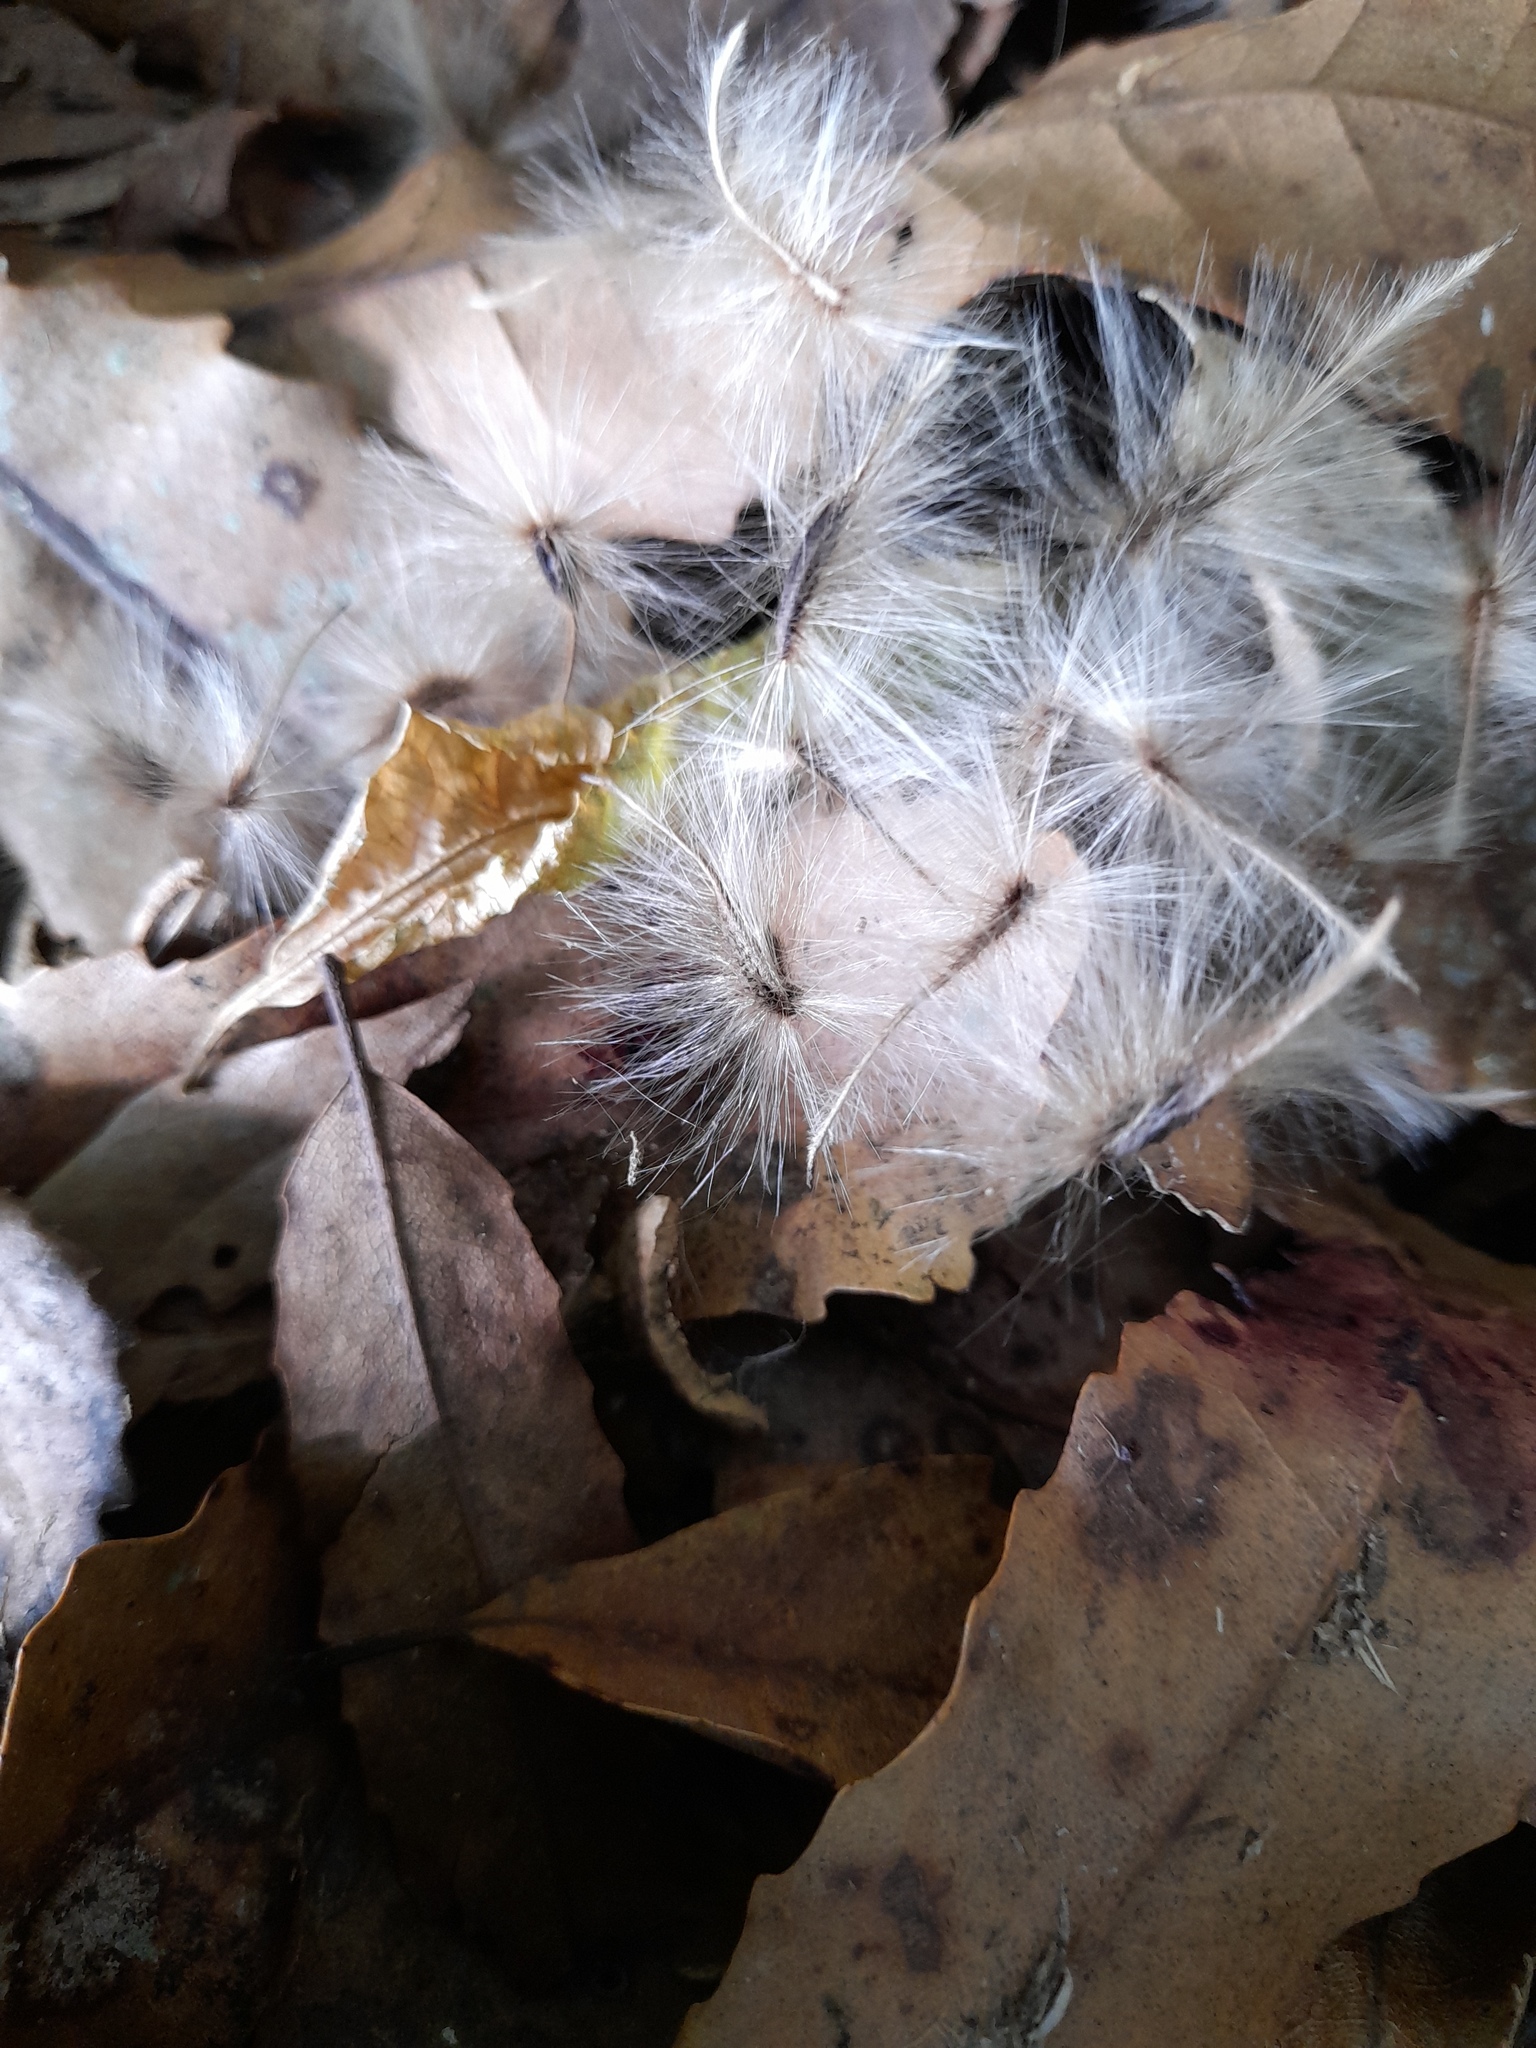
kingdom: Plantae
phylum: Tracheophyta
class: Magnoliopsida
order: Laurales
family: Atherospermataceae
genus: Laurelia
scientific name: Laurelia novae-zelandiae
